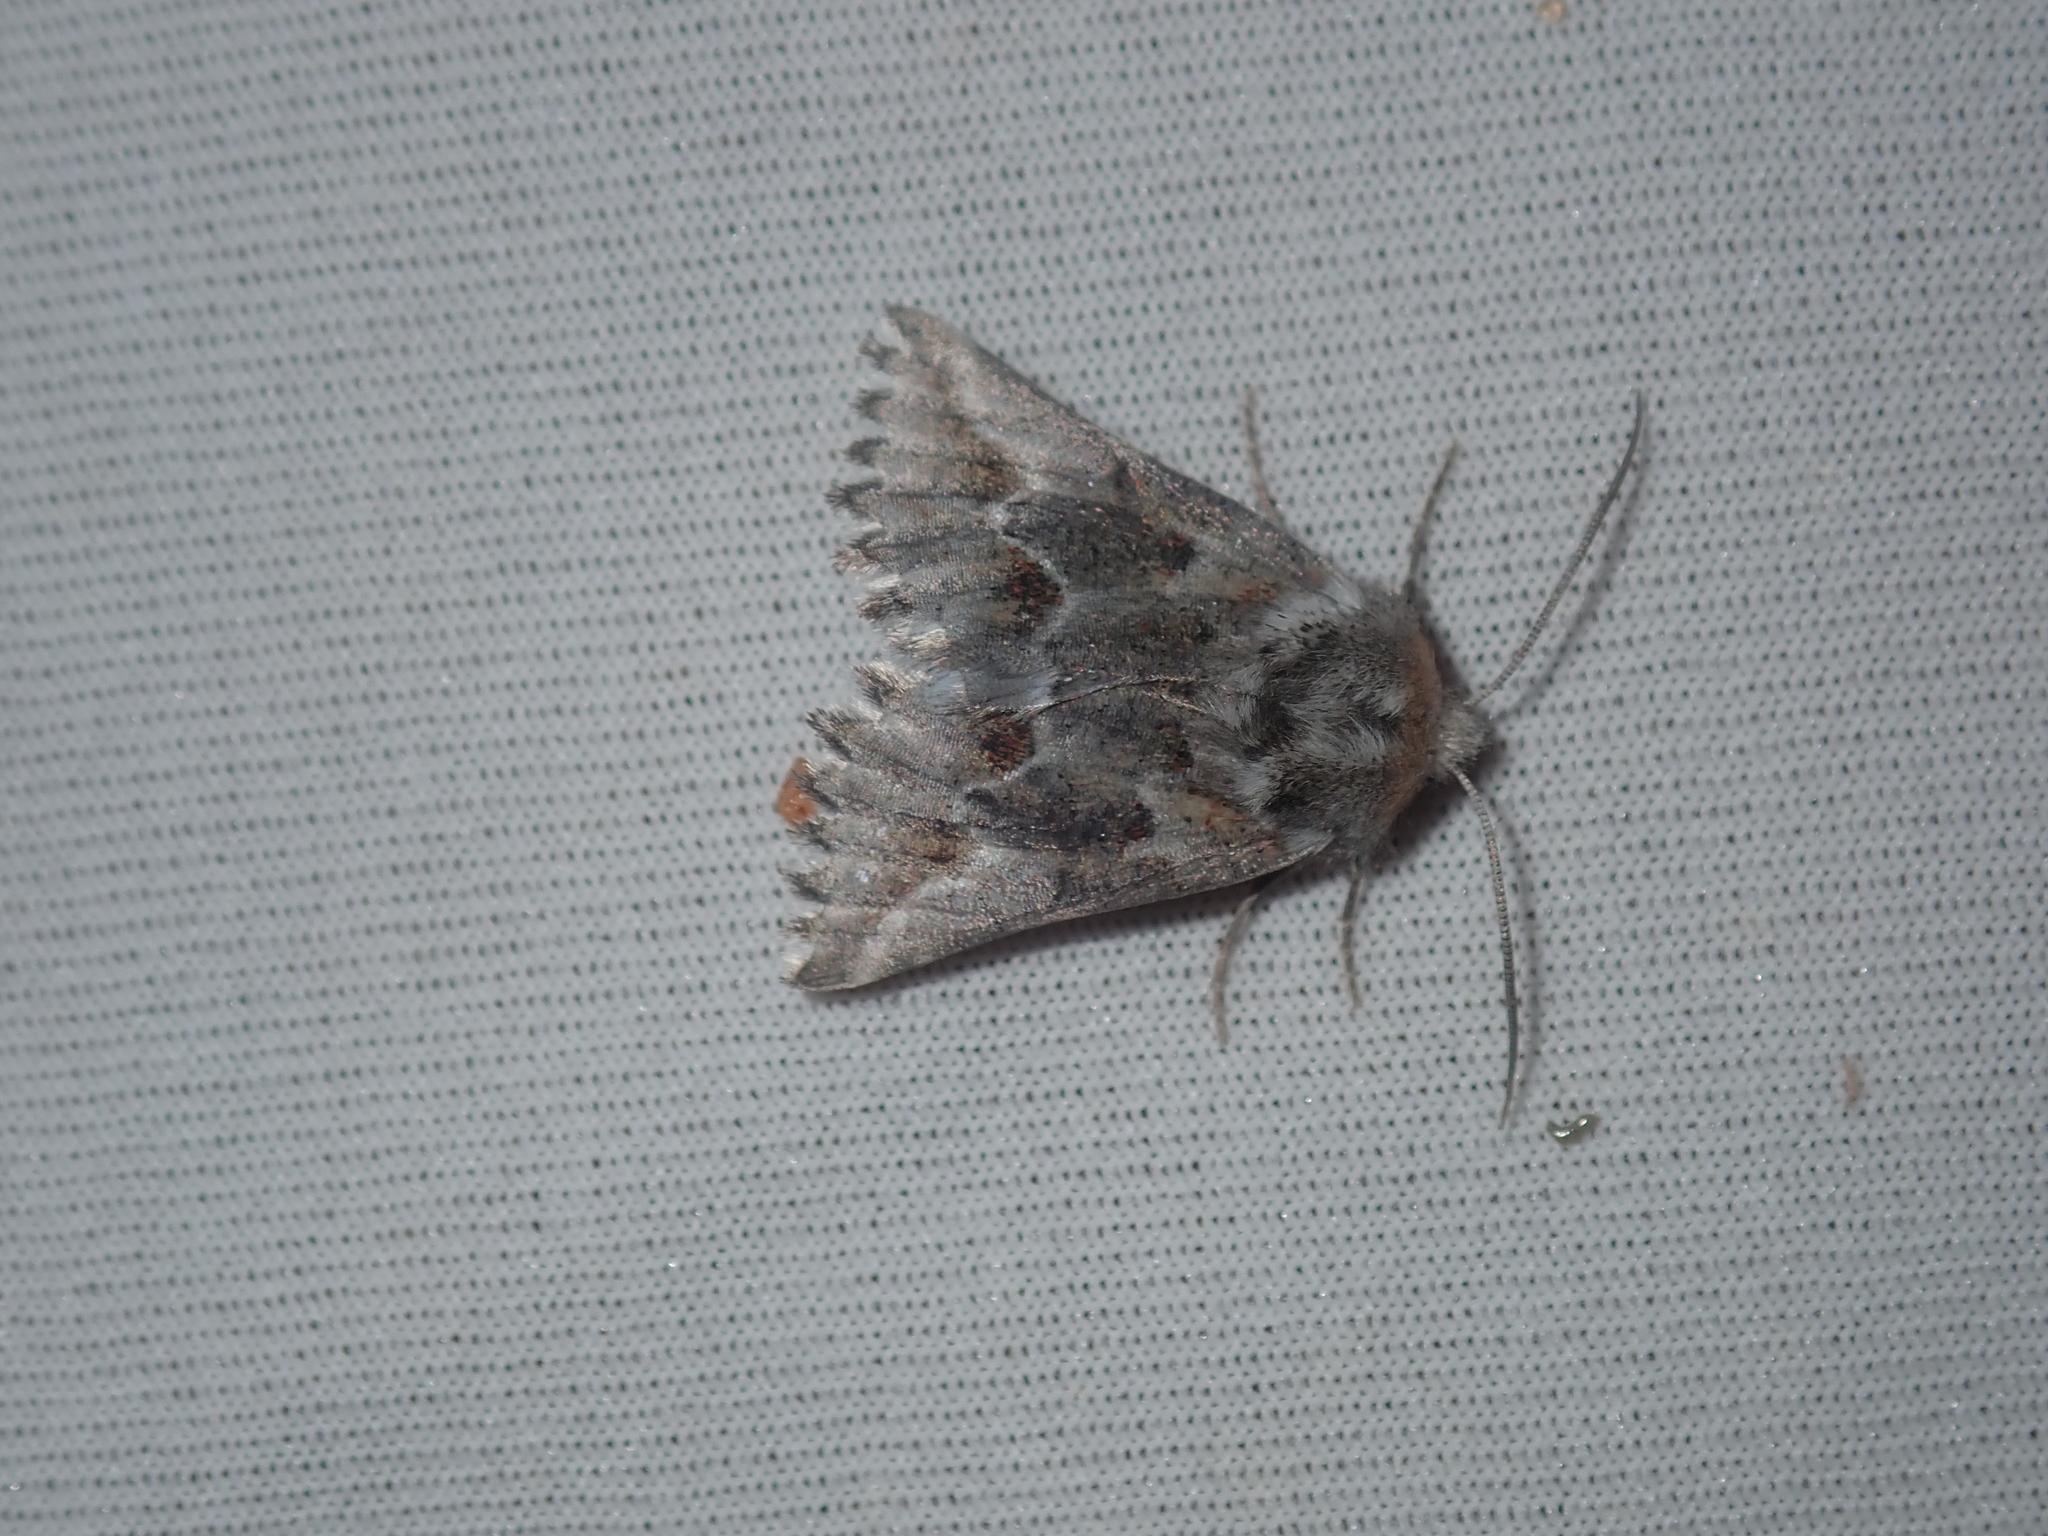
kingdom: Animalia
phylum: Arthropoda
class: Insecta
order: Lepidoptera
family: Geometridae
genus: Hypographa
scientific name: Hypographa epiodes
